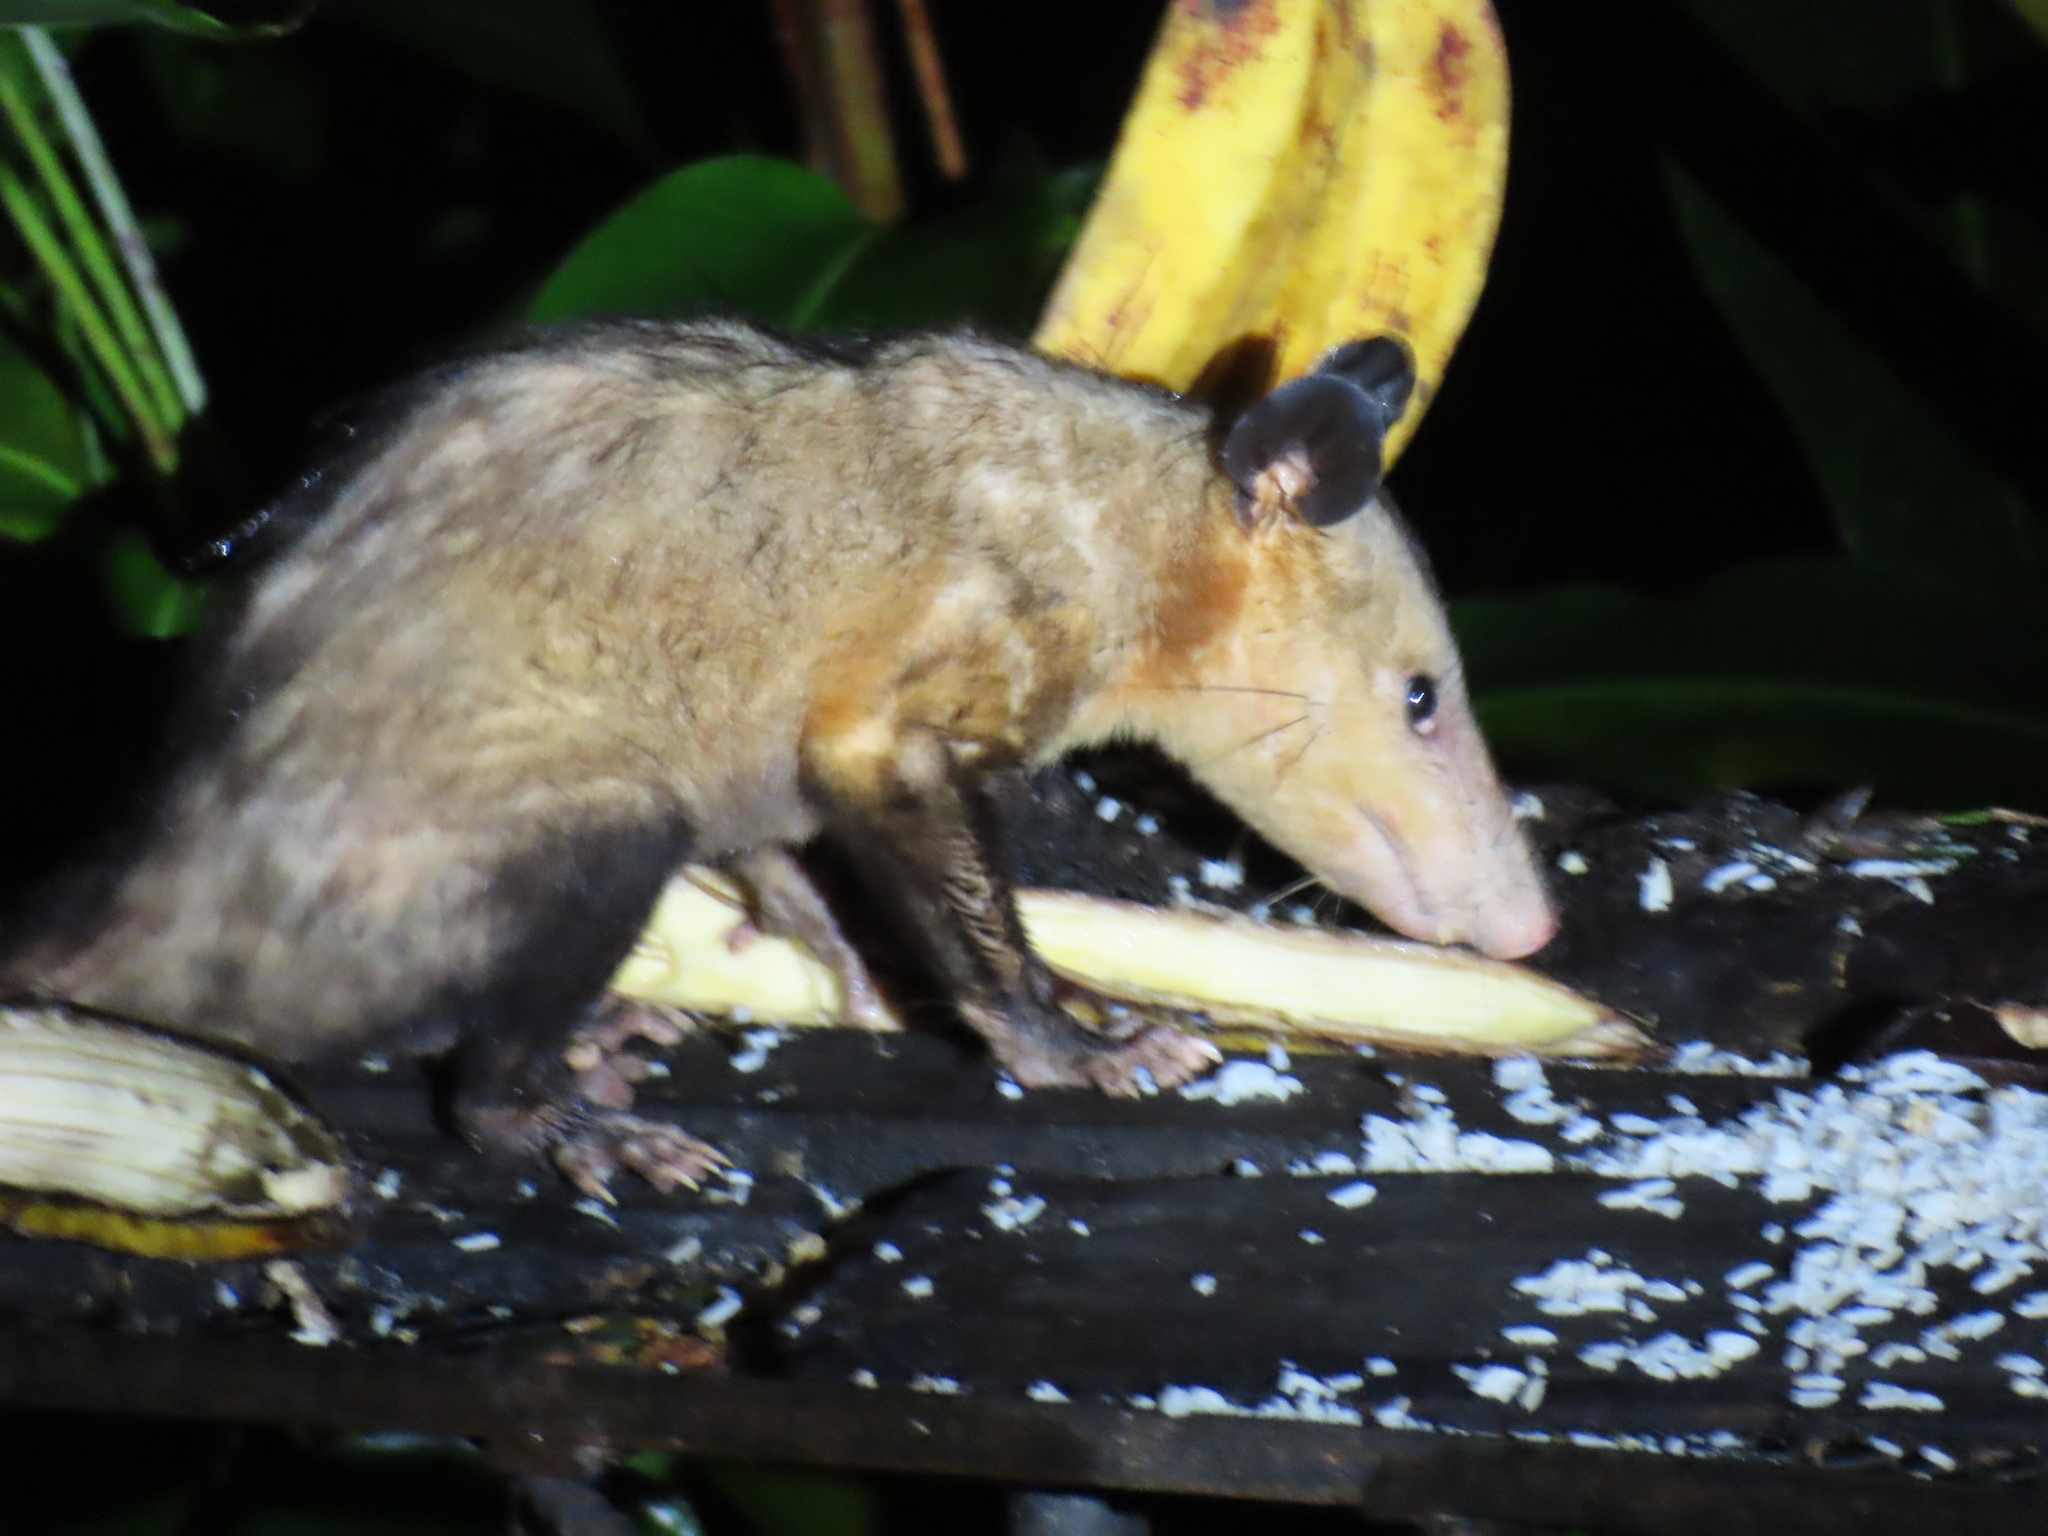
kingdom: Animalia
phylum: Chordata
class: Mammalia
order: Didelphimorphia
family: Didelphidae
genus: Didelphis
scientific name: Didelphis marsupialis
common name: Common opossum
